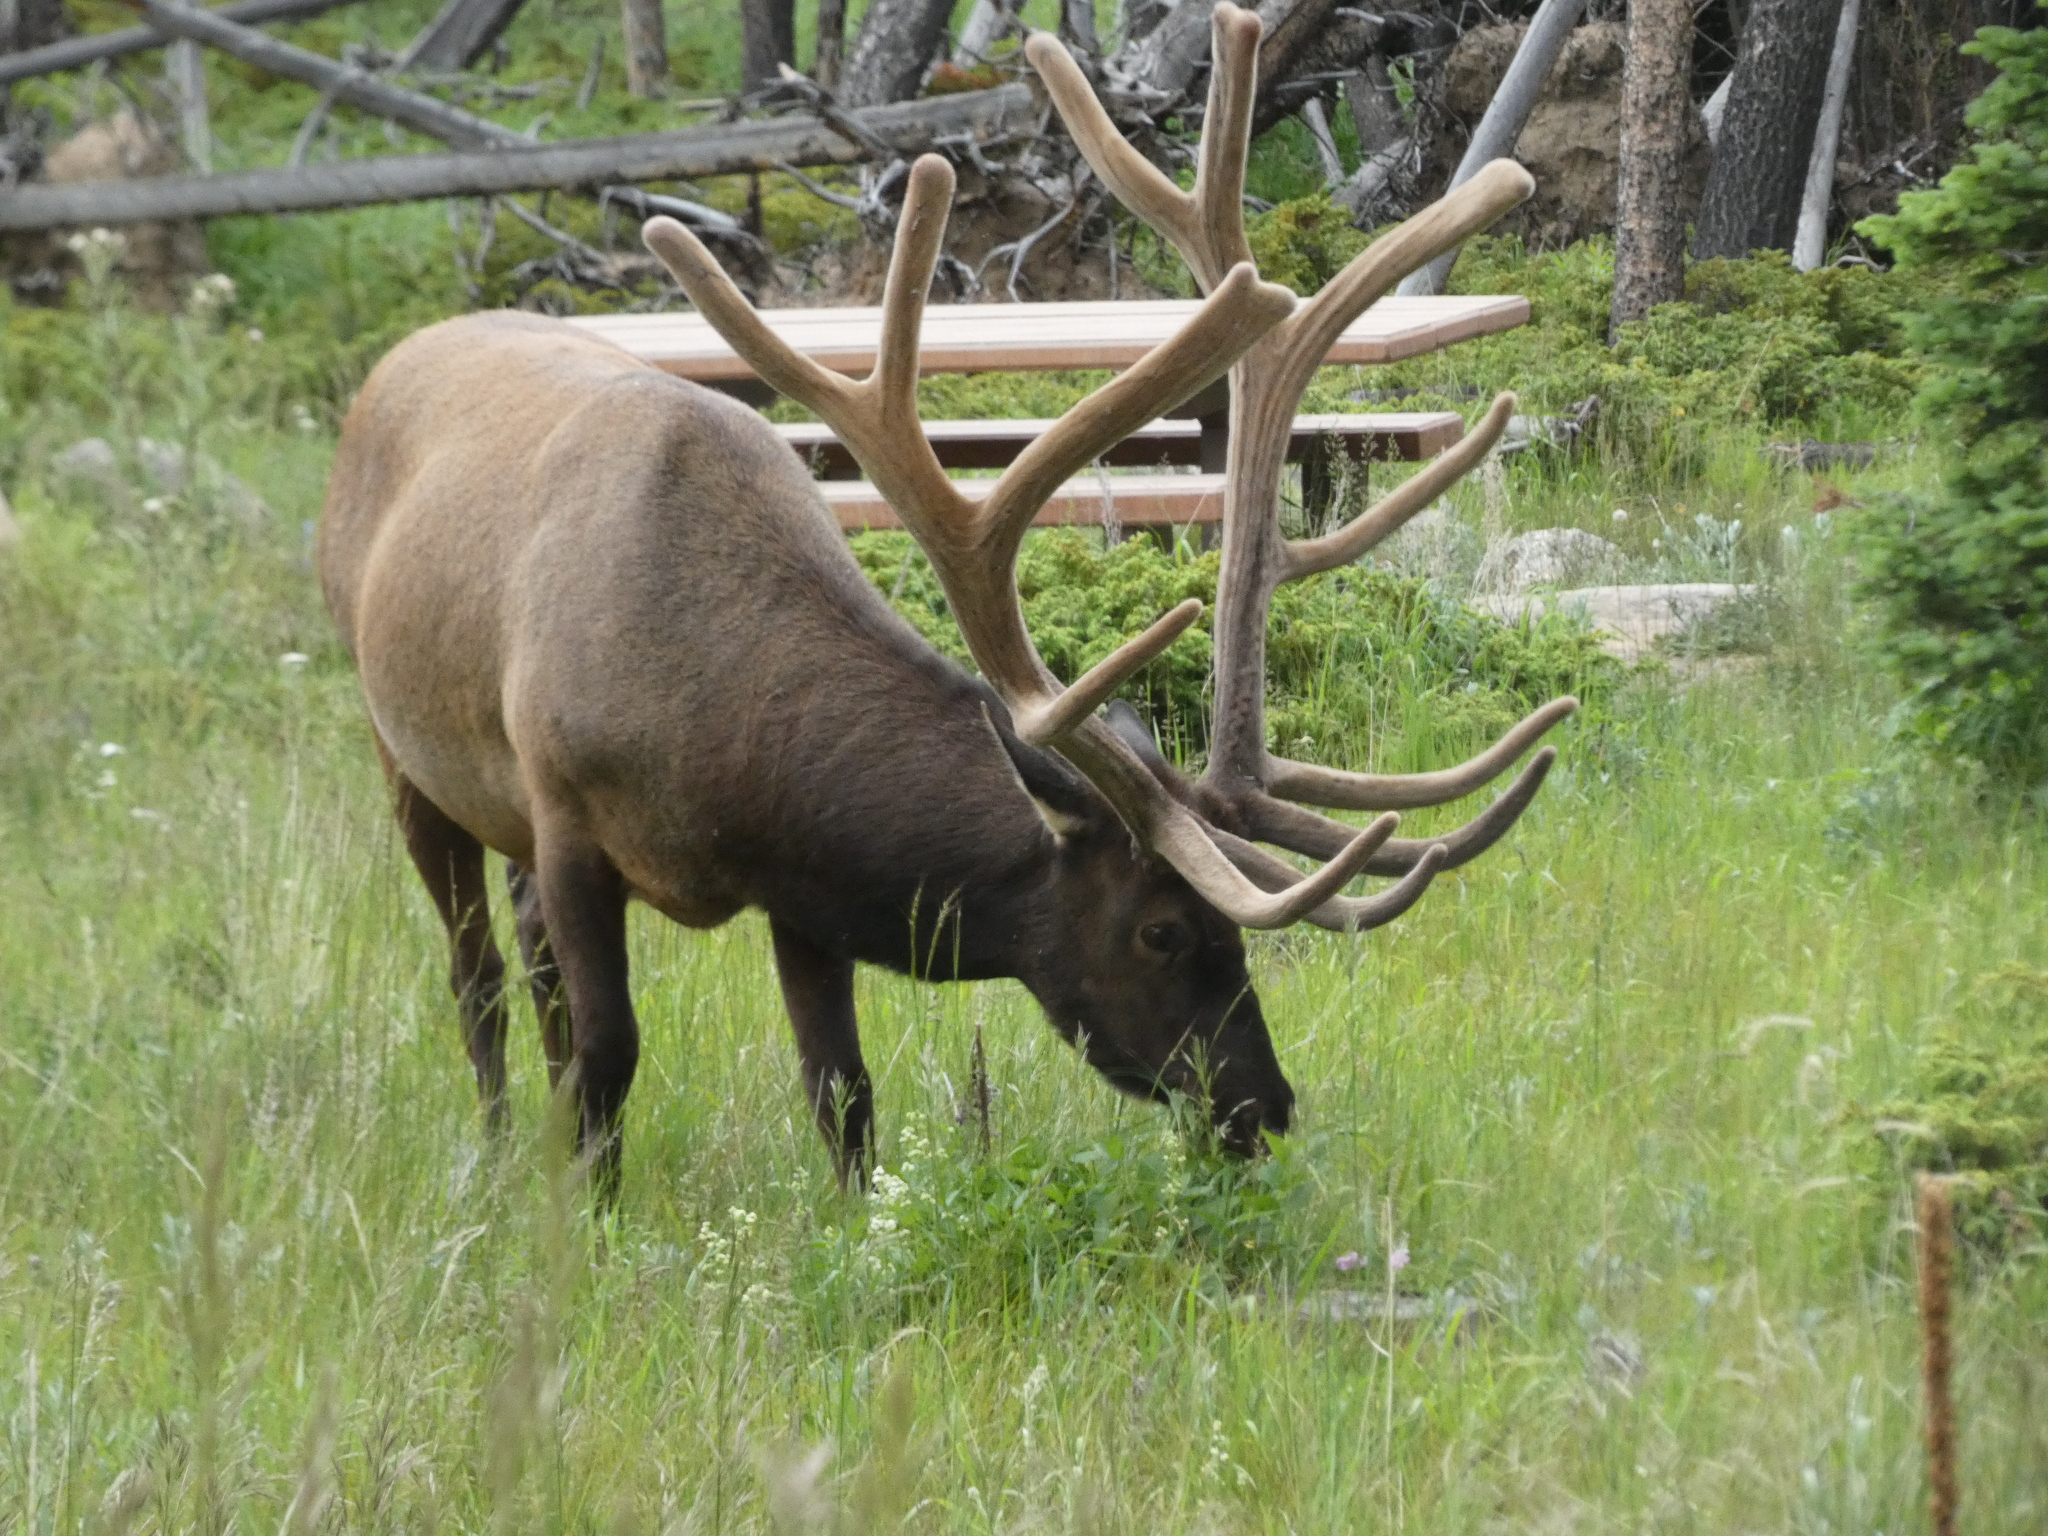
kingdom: Animalia
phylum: Chordata
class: Mammalia
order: Artiodactyla
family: Cervidae
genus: Cervus
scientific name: Cervus elaphus
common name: Red deer
